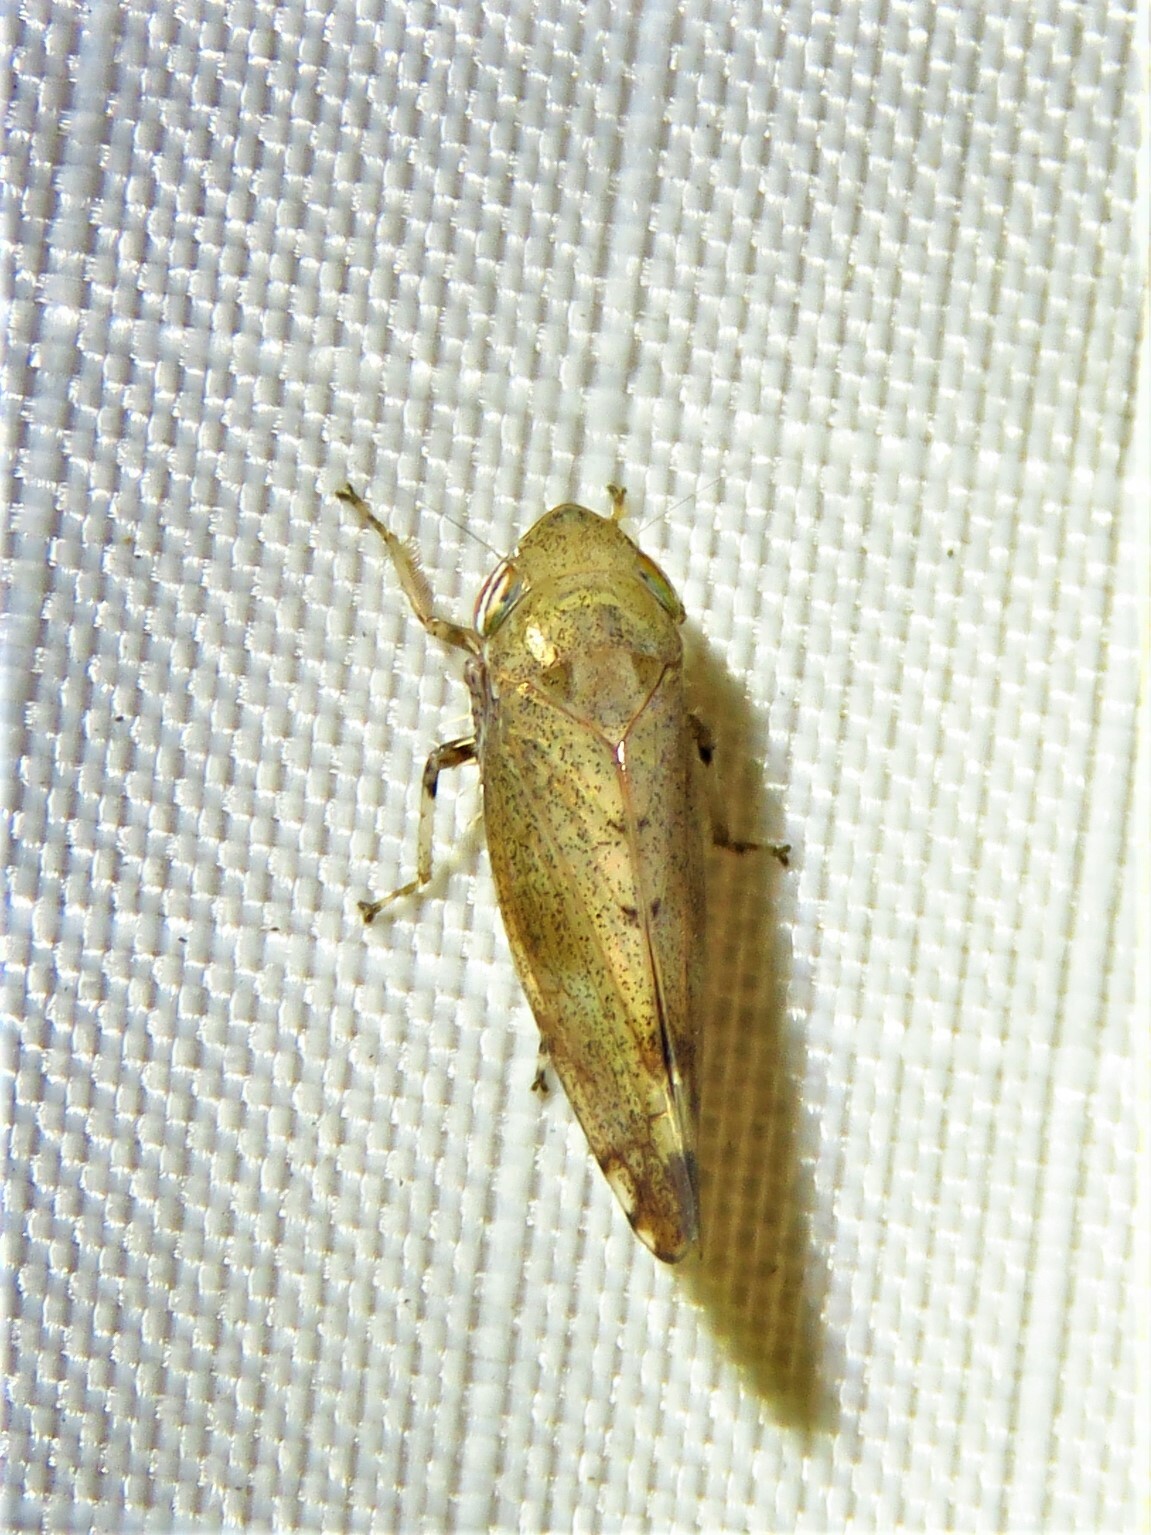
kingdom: Animalia
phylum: Arthropoda
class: Insecta
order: Hemiptera
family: Cicadellidae
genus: Fieberiella
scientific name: Fieberiella florii
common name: Flor’s leafhopper
